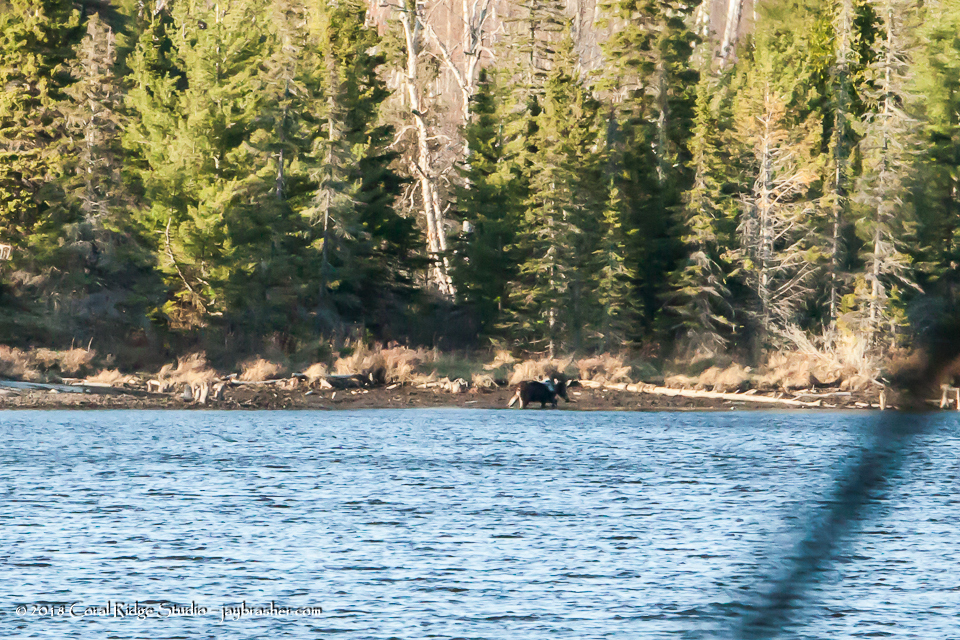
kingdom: Animalia
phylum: Chordata
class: Mammalia
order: Artiodactyla
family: Cervidae
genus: Alces
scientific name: Alces alces
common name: Moose
